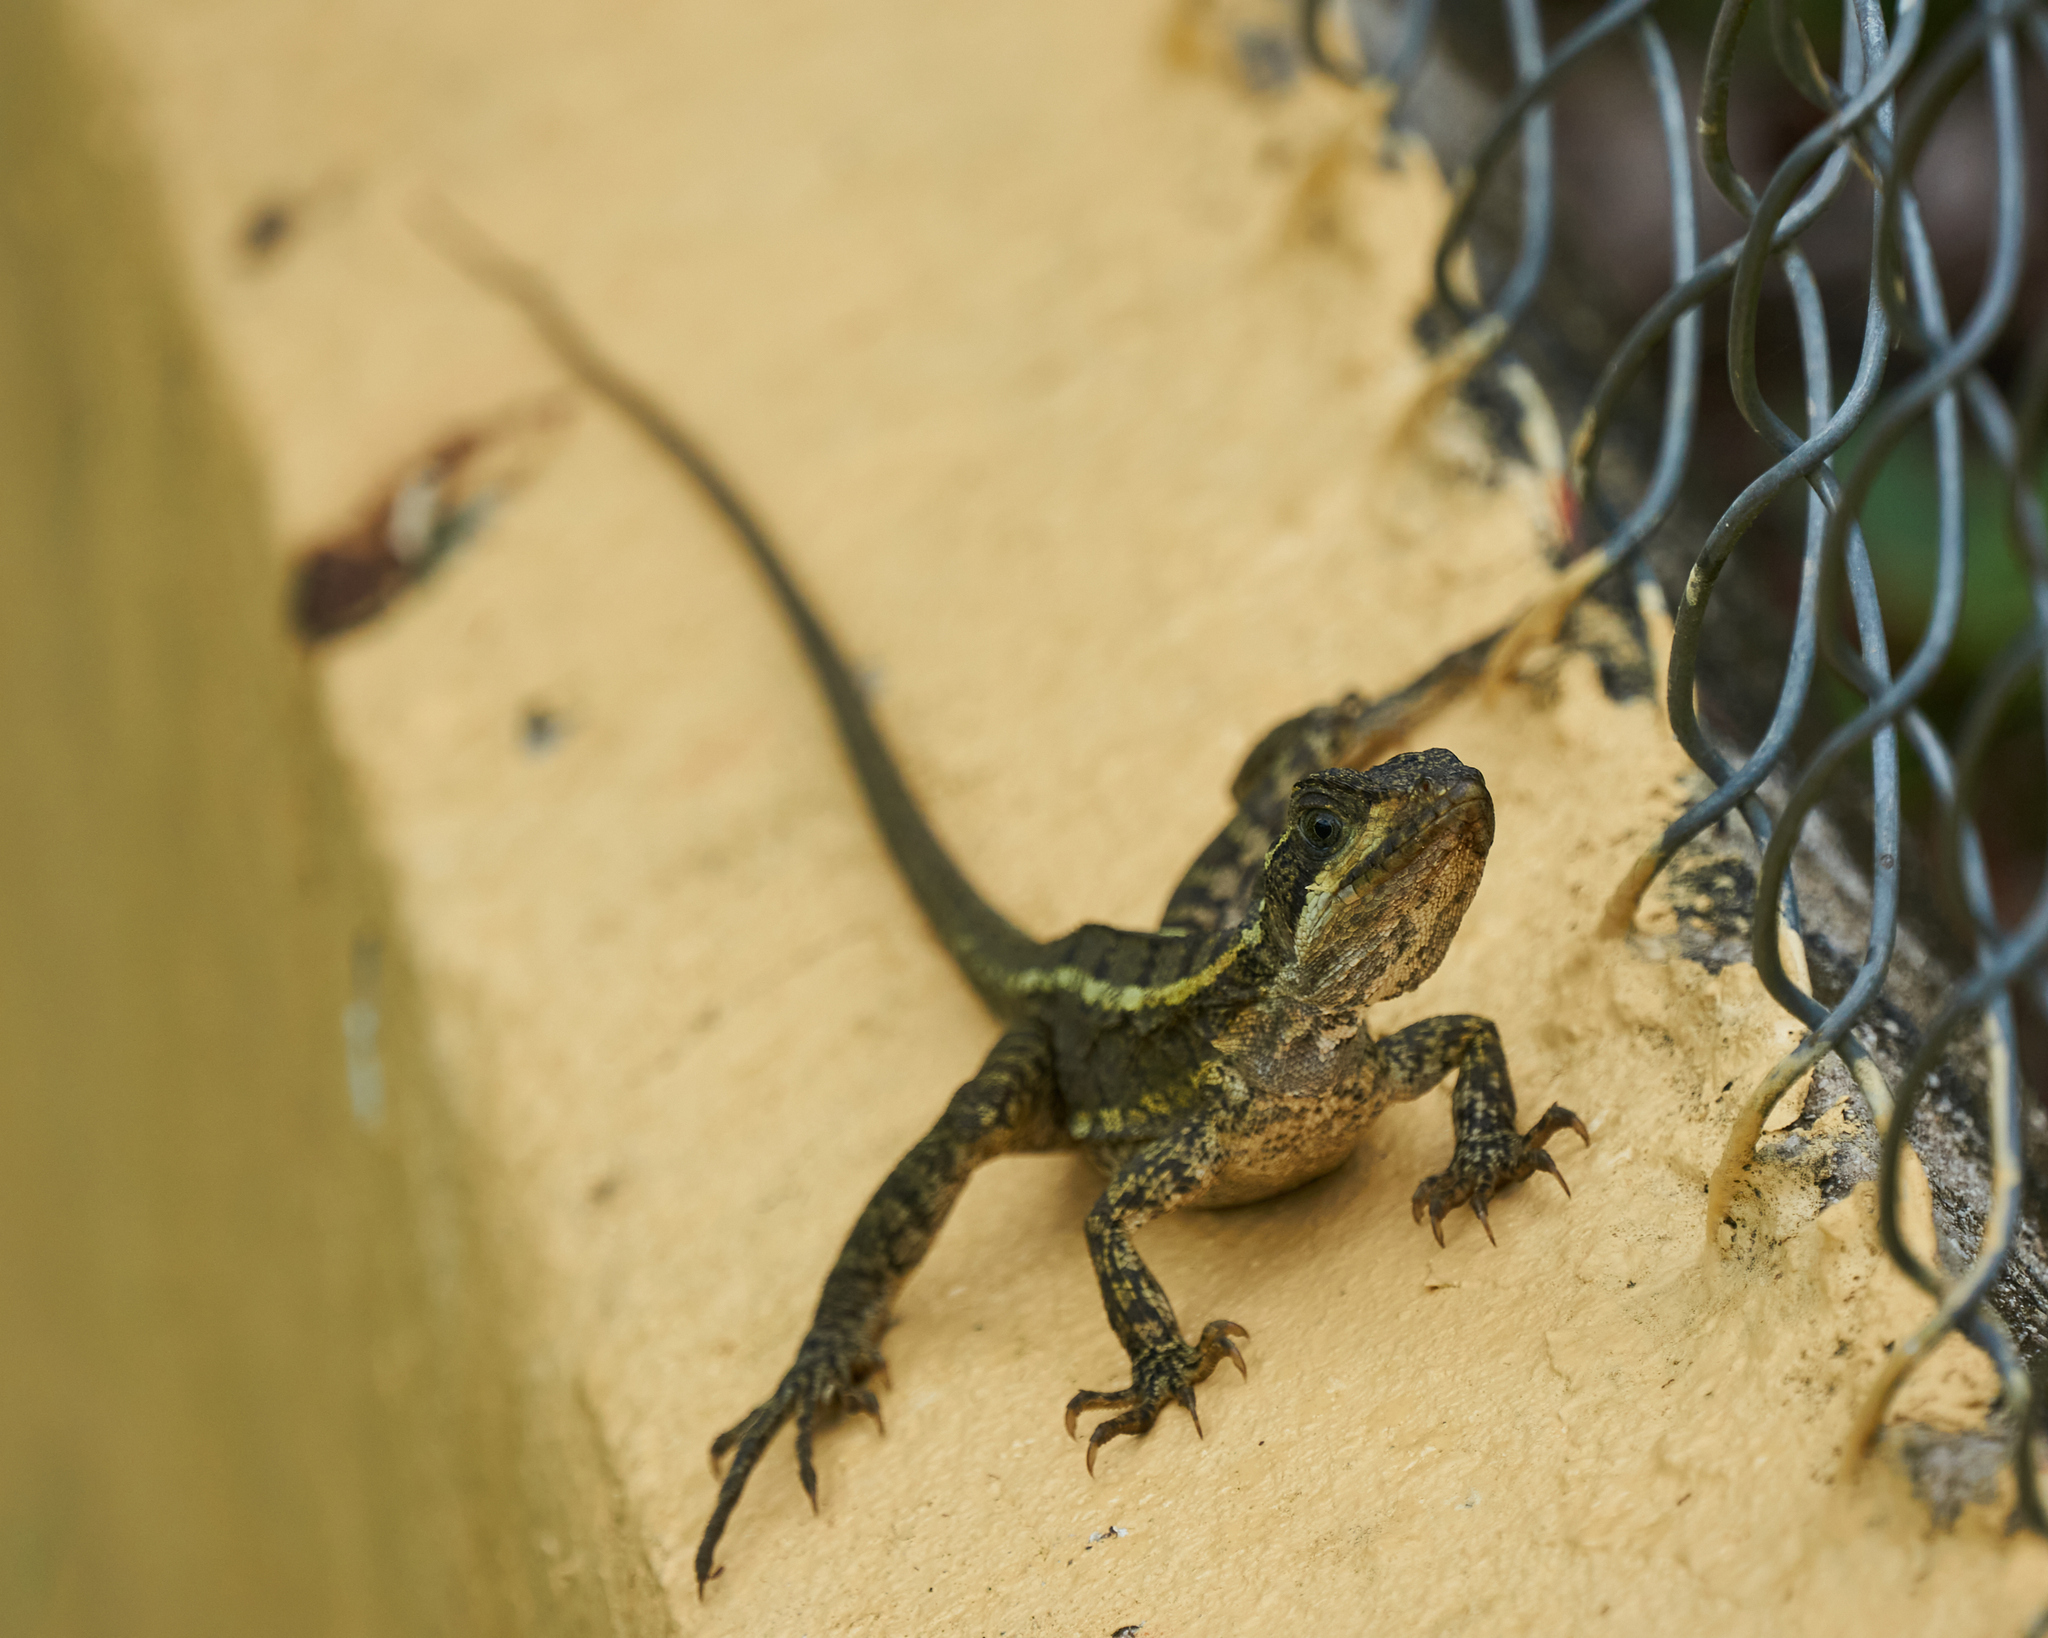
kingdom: Animalia
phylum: Chordata
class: Squamata
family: Corytophanidae
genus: Basiliscus
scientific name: Basiliscus vittatus
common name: Brown basilisk
